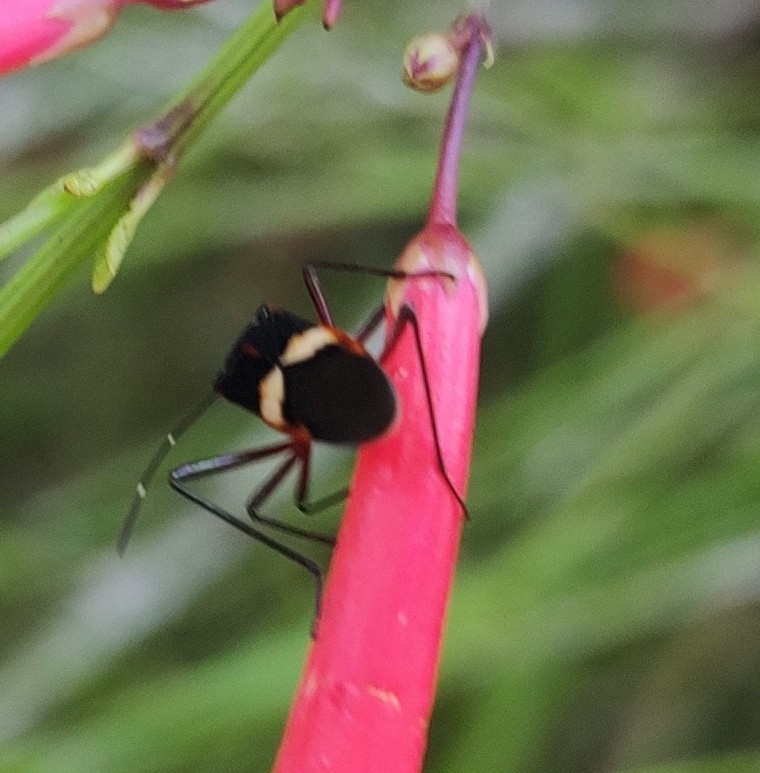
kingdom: Animalia
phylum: Arthropoda
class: Insecta
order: Hemiptera
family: Coreidae
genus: Hypselonotus
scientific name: Hypselonotus interruptus
